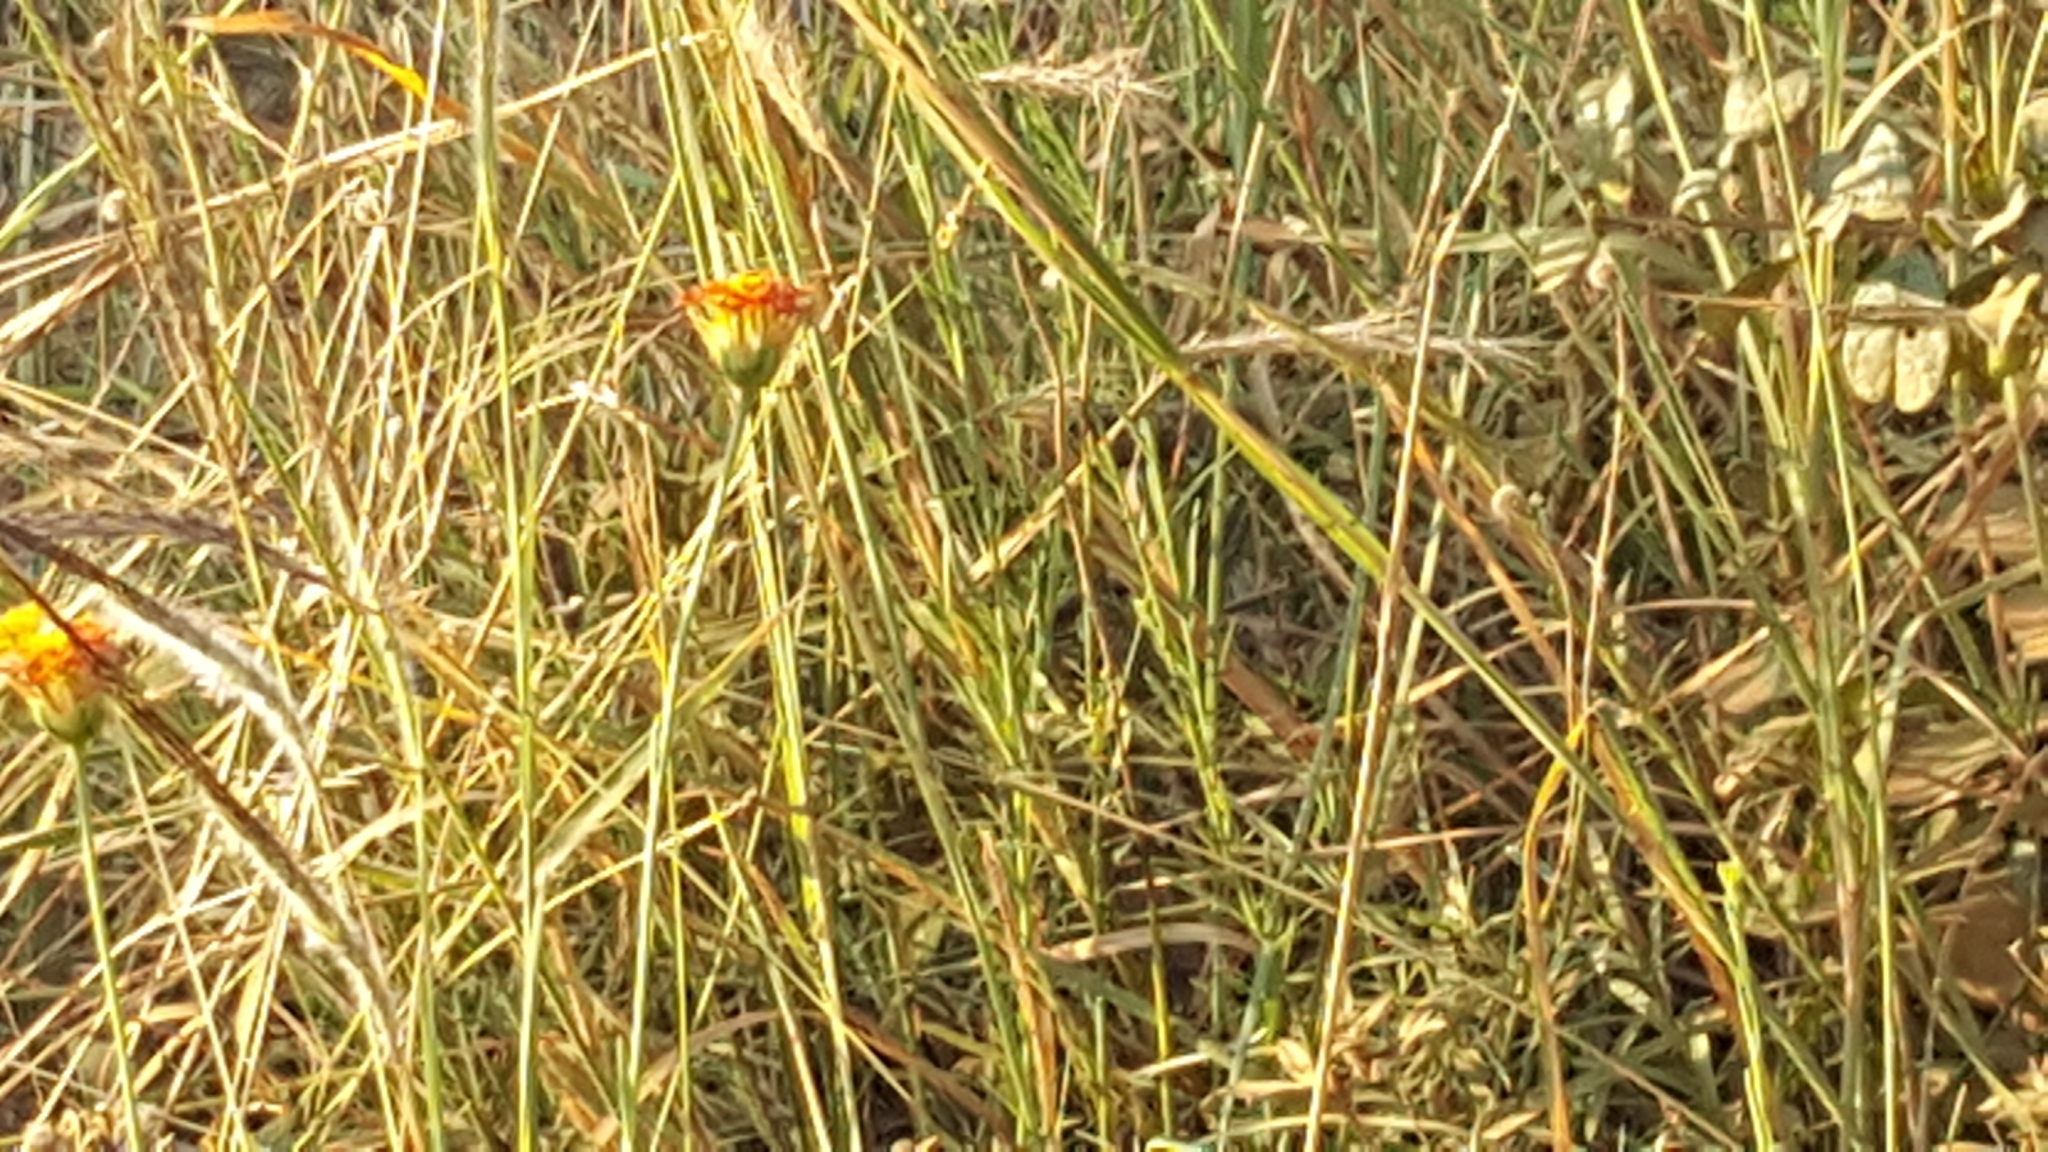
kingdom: Plantae
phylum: Tracheophyta
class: Magnoliopsida
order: Malvales
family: Thymelaeaceae
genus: Gnidia
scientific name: Gnidia rubescens
